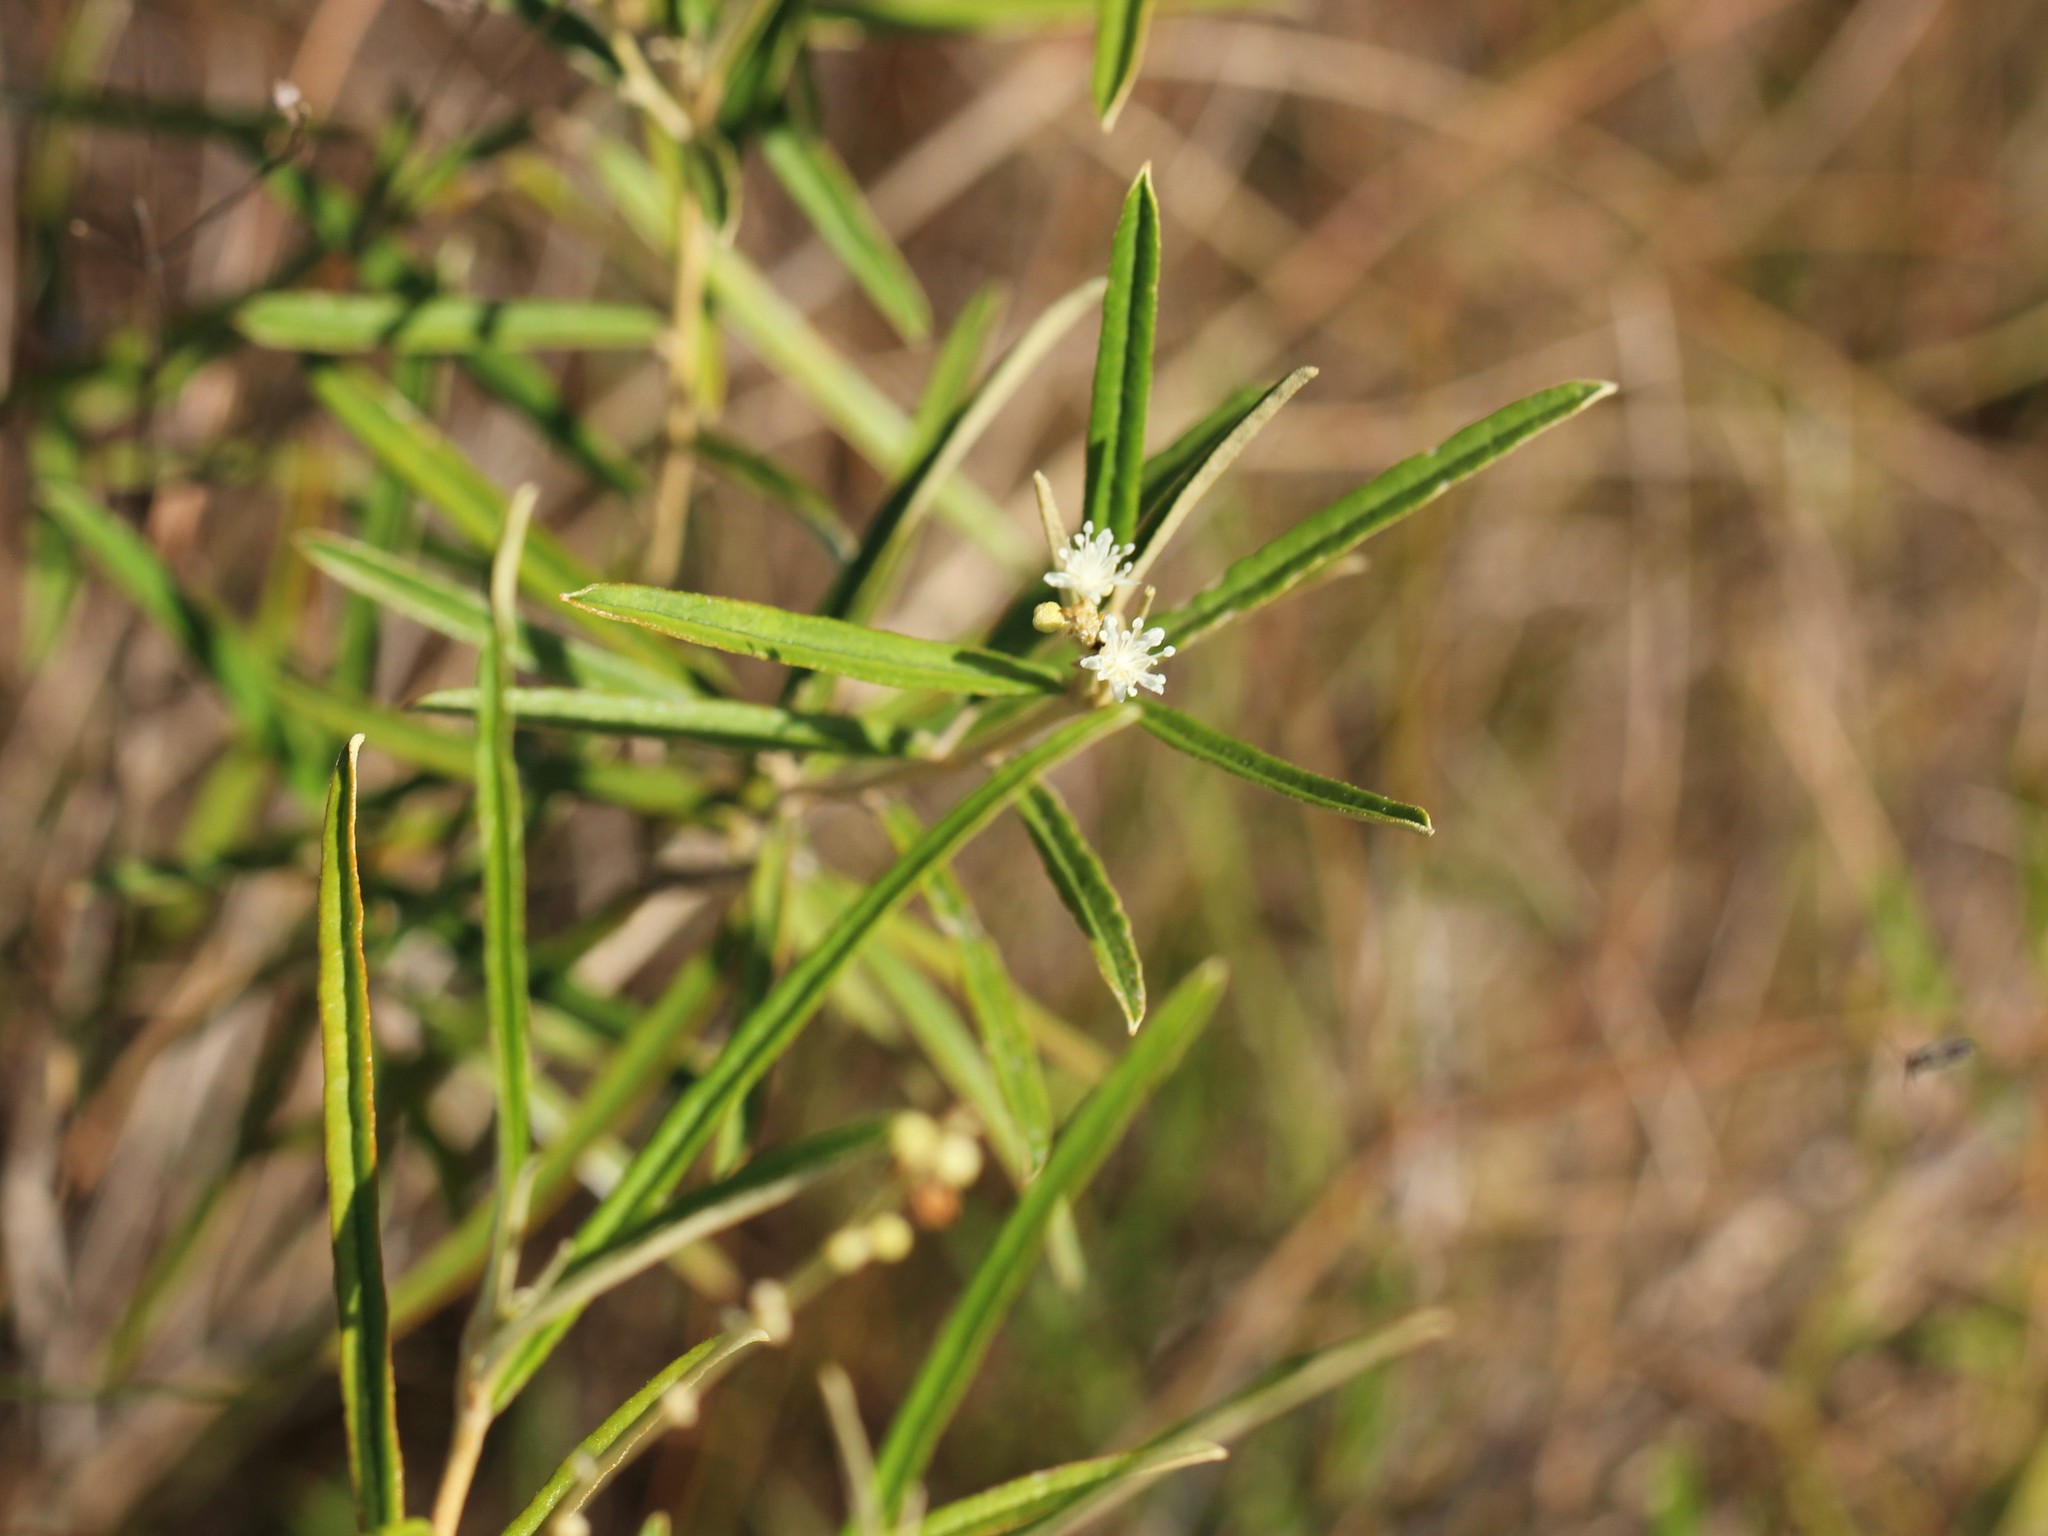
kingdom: Plantae
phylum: Tracheophyta
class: Magnoliopsida
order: Malpighiales
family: Euphorbiaceae
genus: Croton
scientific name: Croton linearis
